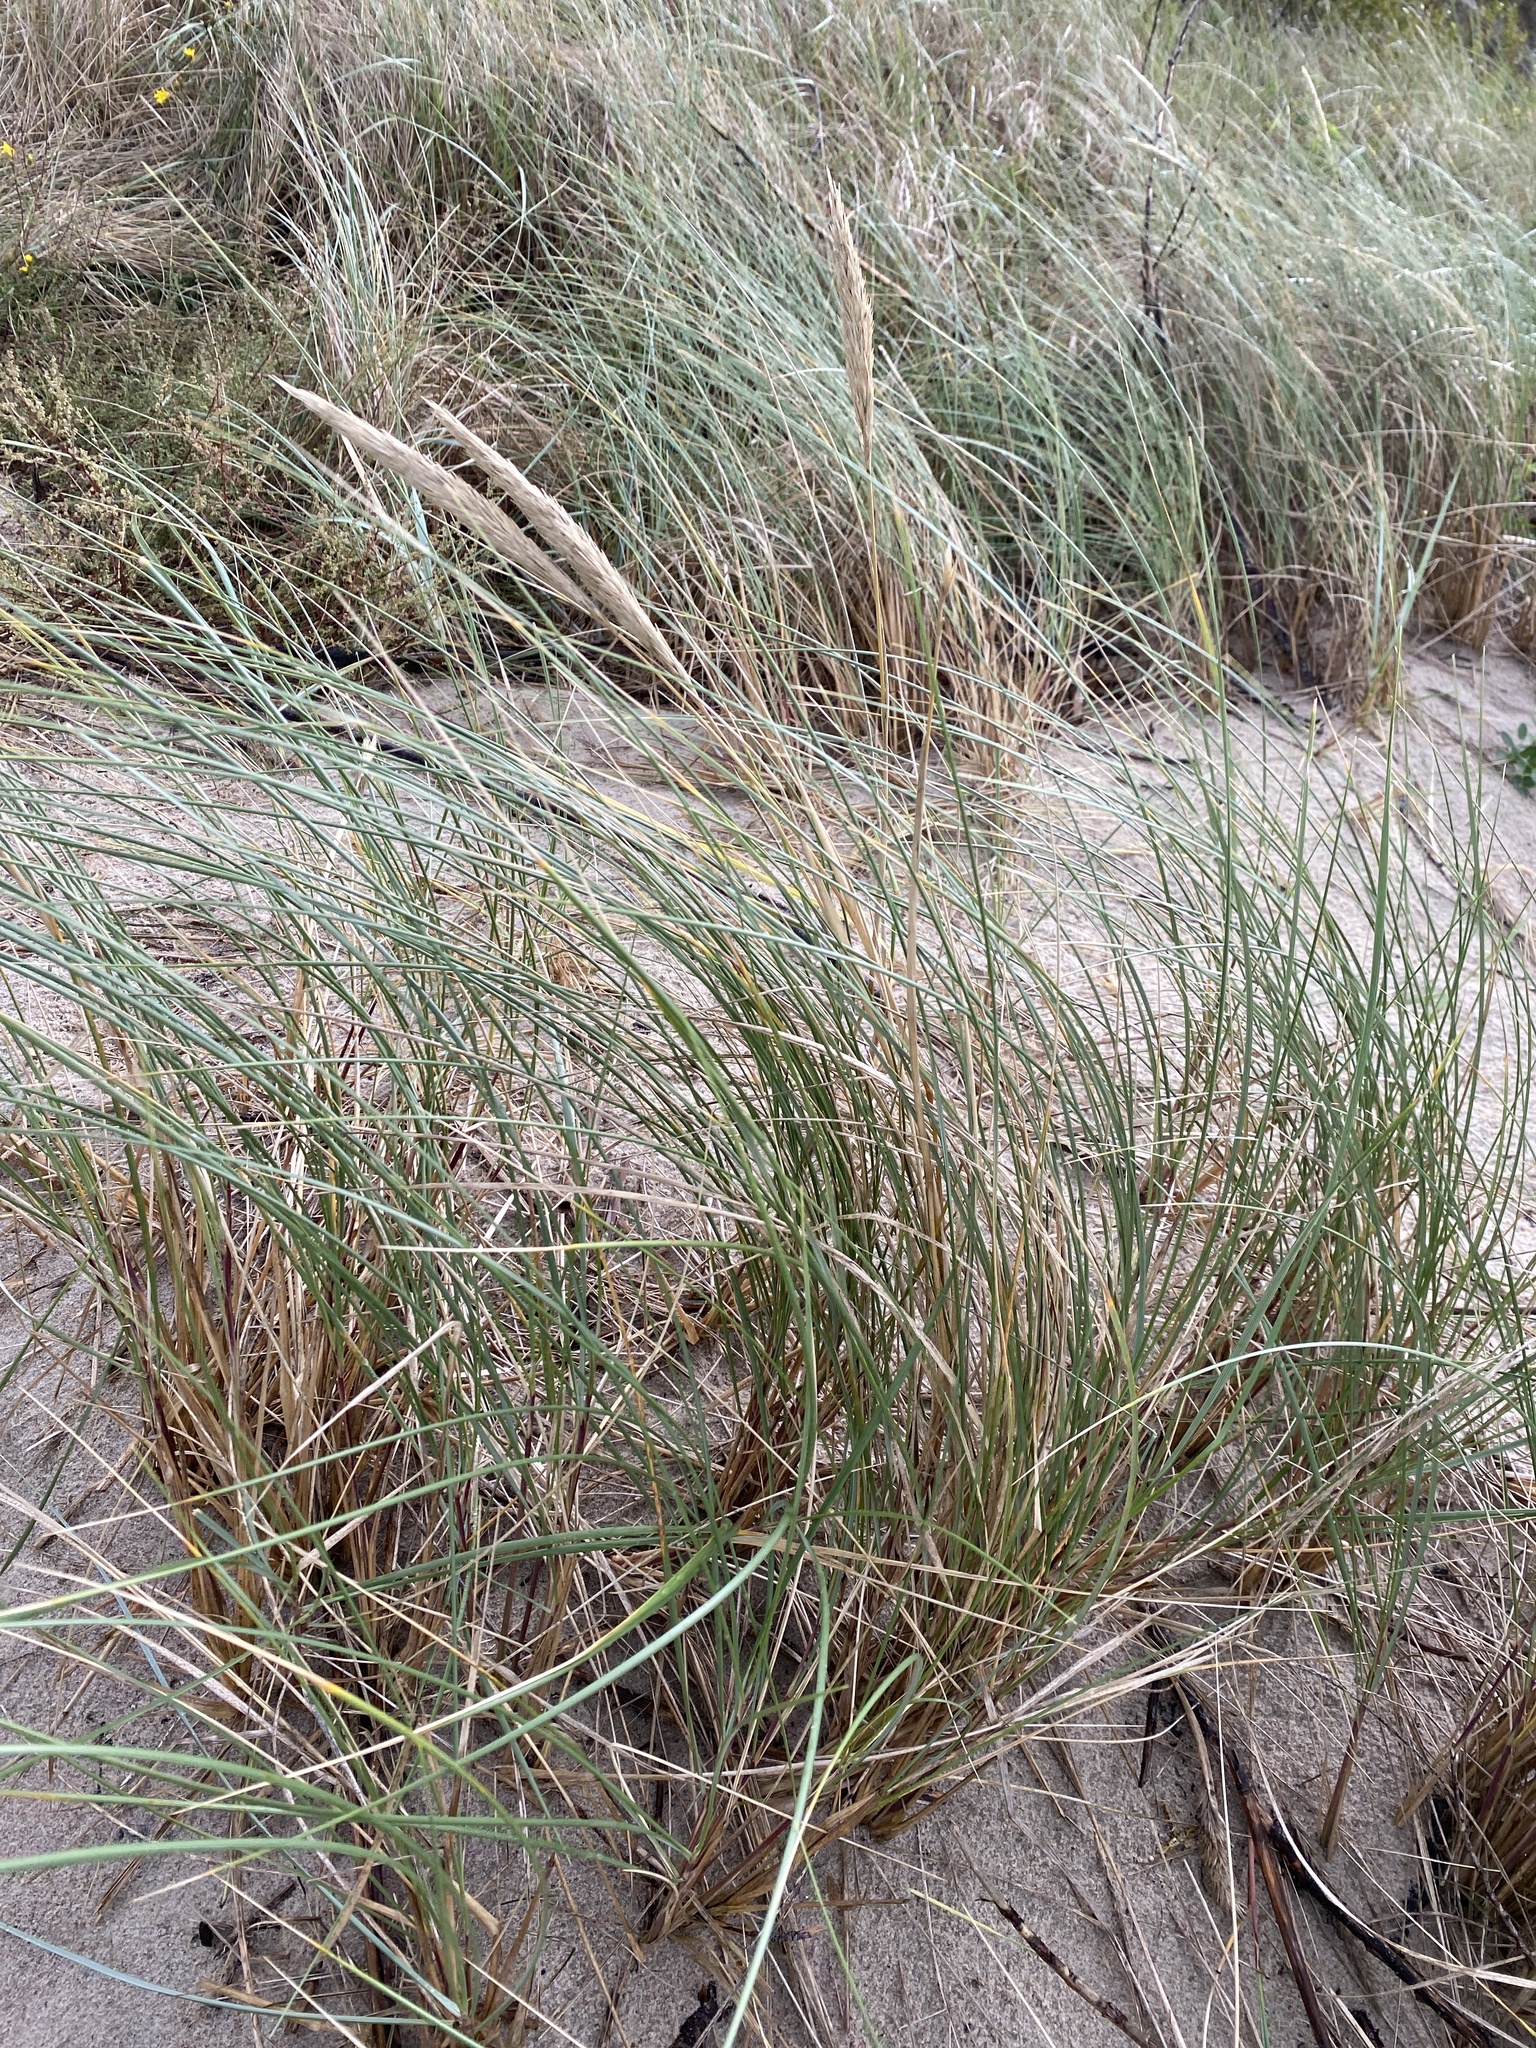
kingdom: Plantae
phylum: Tracheophyta
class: Liliopsida
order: Poales
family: Poaceae
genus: Calamagrostis
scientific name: Calamagrostis arenaria
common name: European beachgrass
